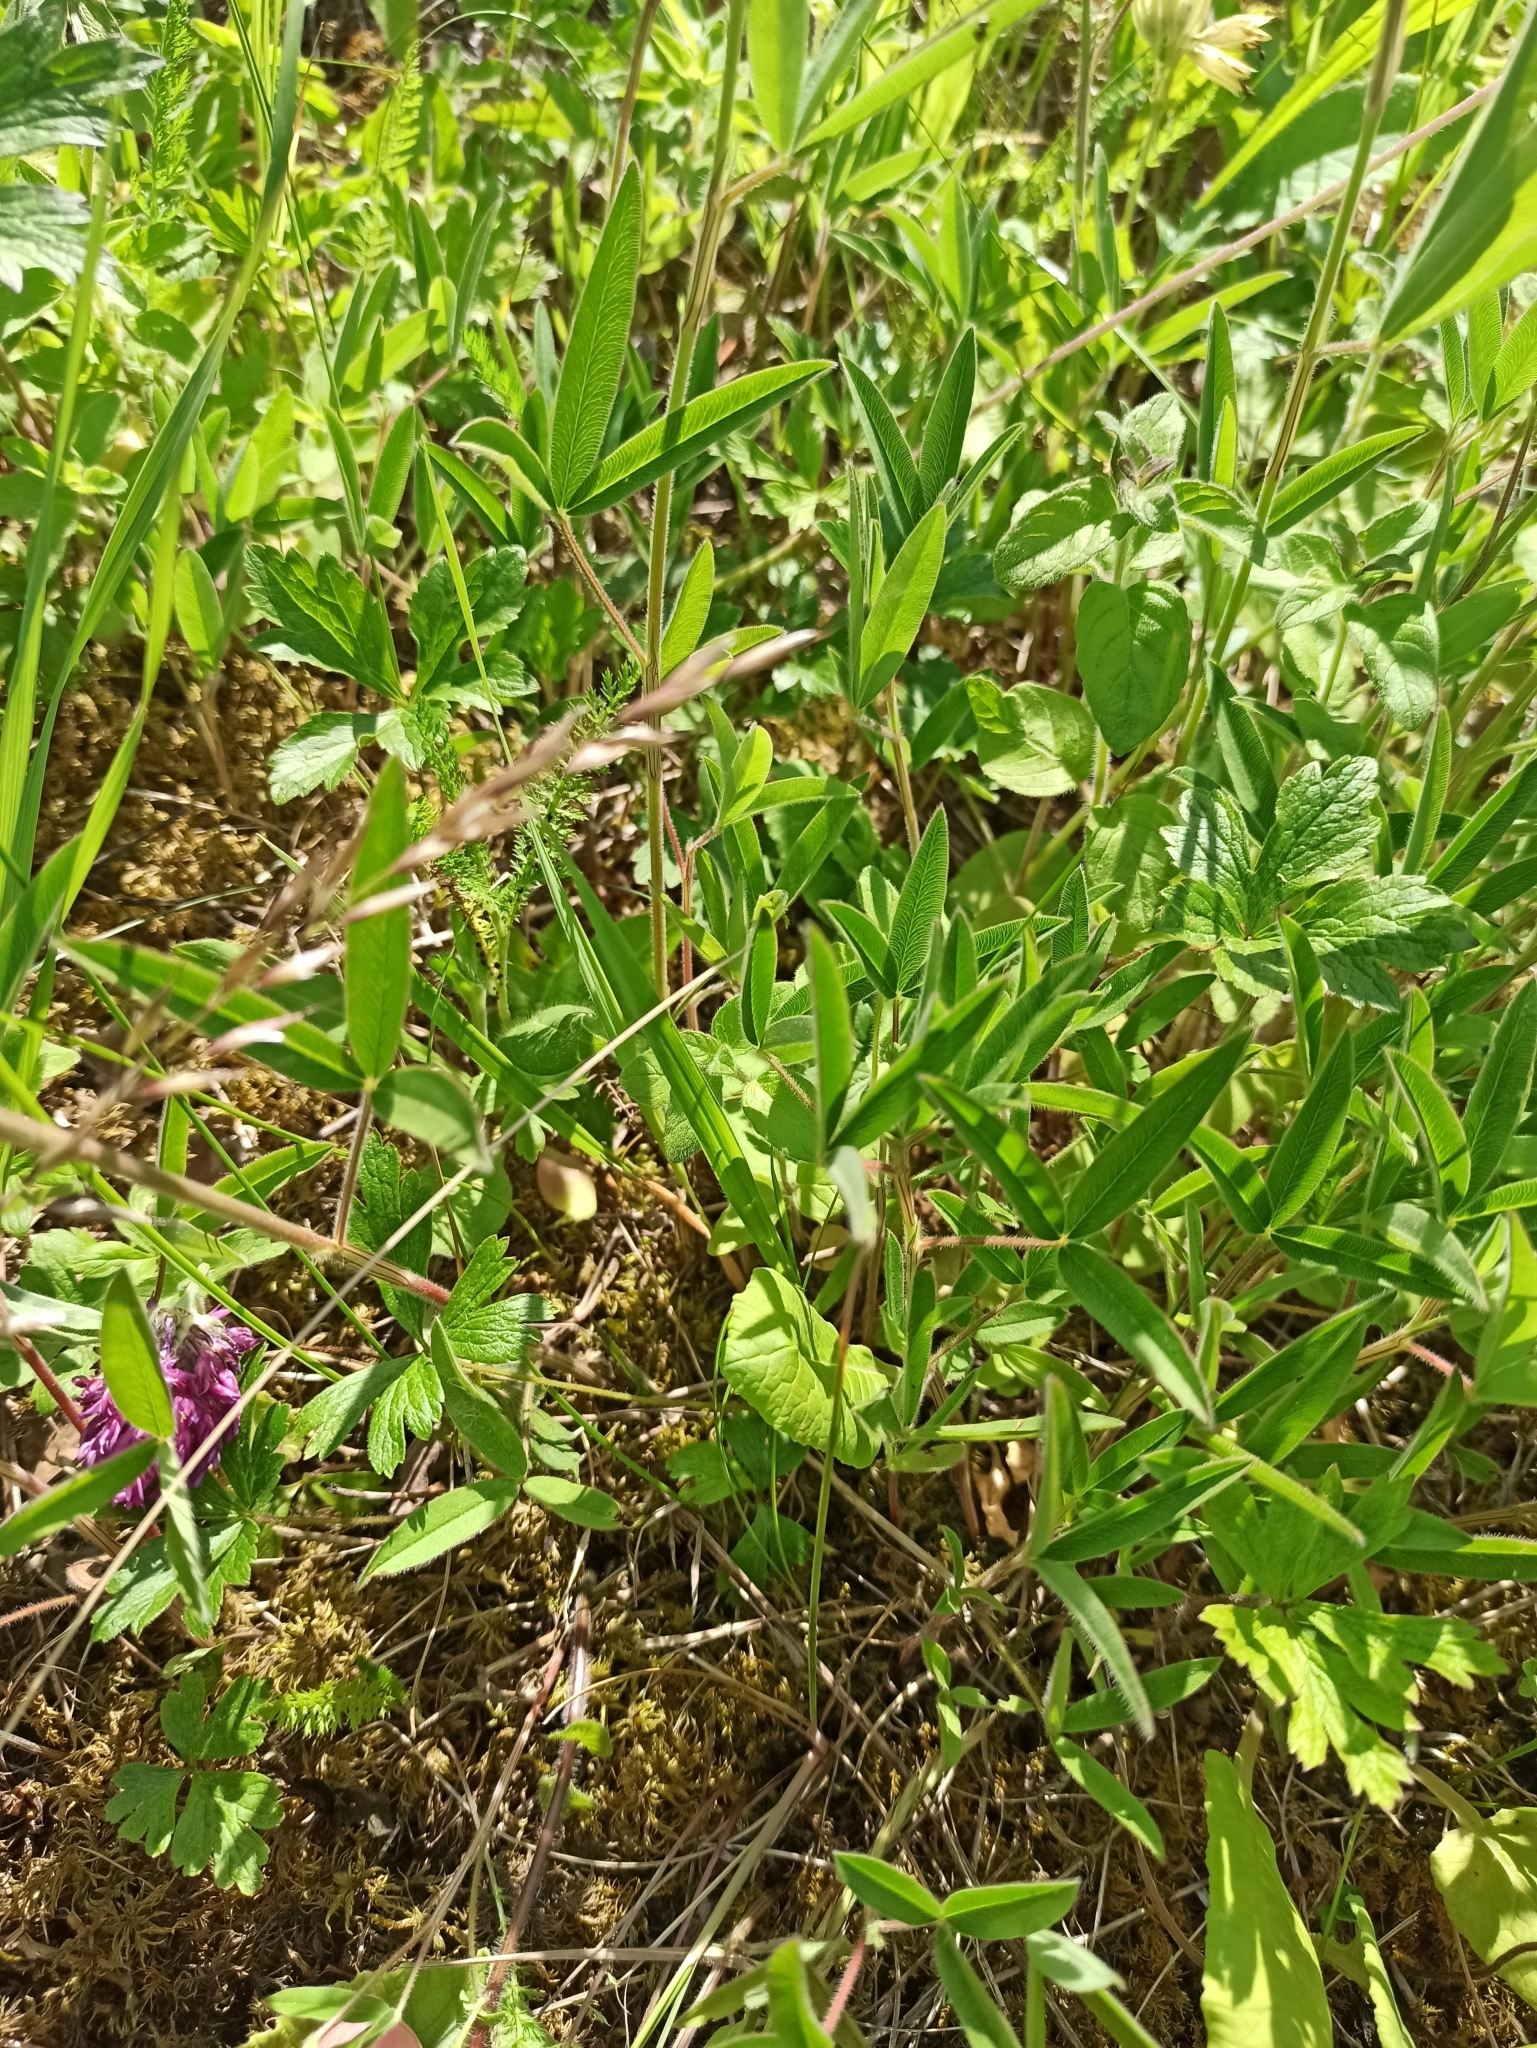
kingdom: Plantae
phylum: Tracheophyta
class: Magnoliopsida
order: Fabales
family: Fabaceae
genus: Trifolium
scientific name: Trifolium alpestre
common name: Owl-head clover
